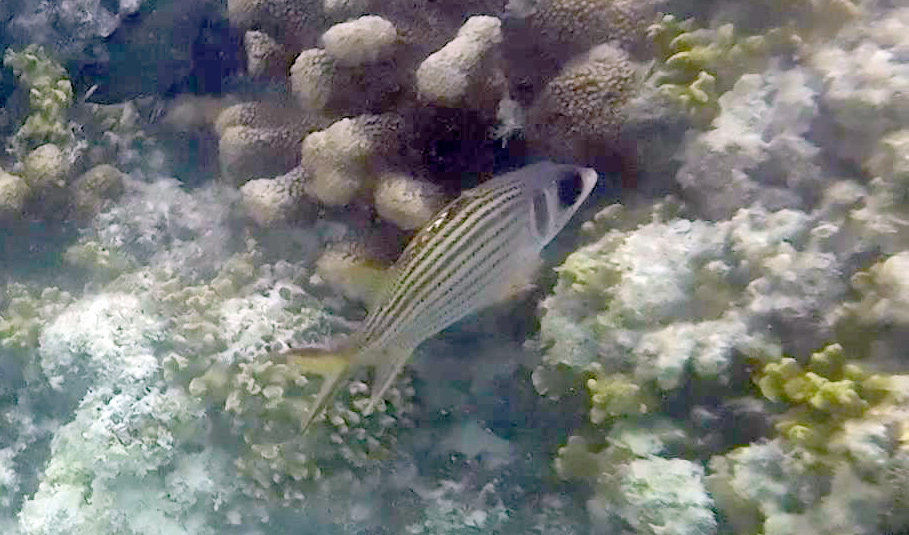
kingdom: Animalia
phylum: Chordata
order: Beryciformes
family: Holocentridae
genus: Neoniphon
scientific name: Neoniphon sammara
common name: Sammara squirrelfish
